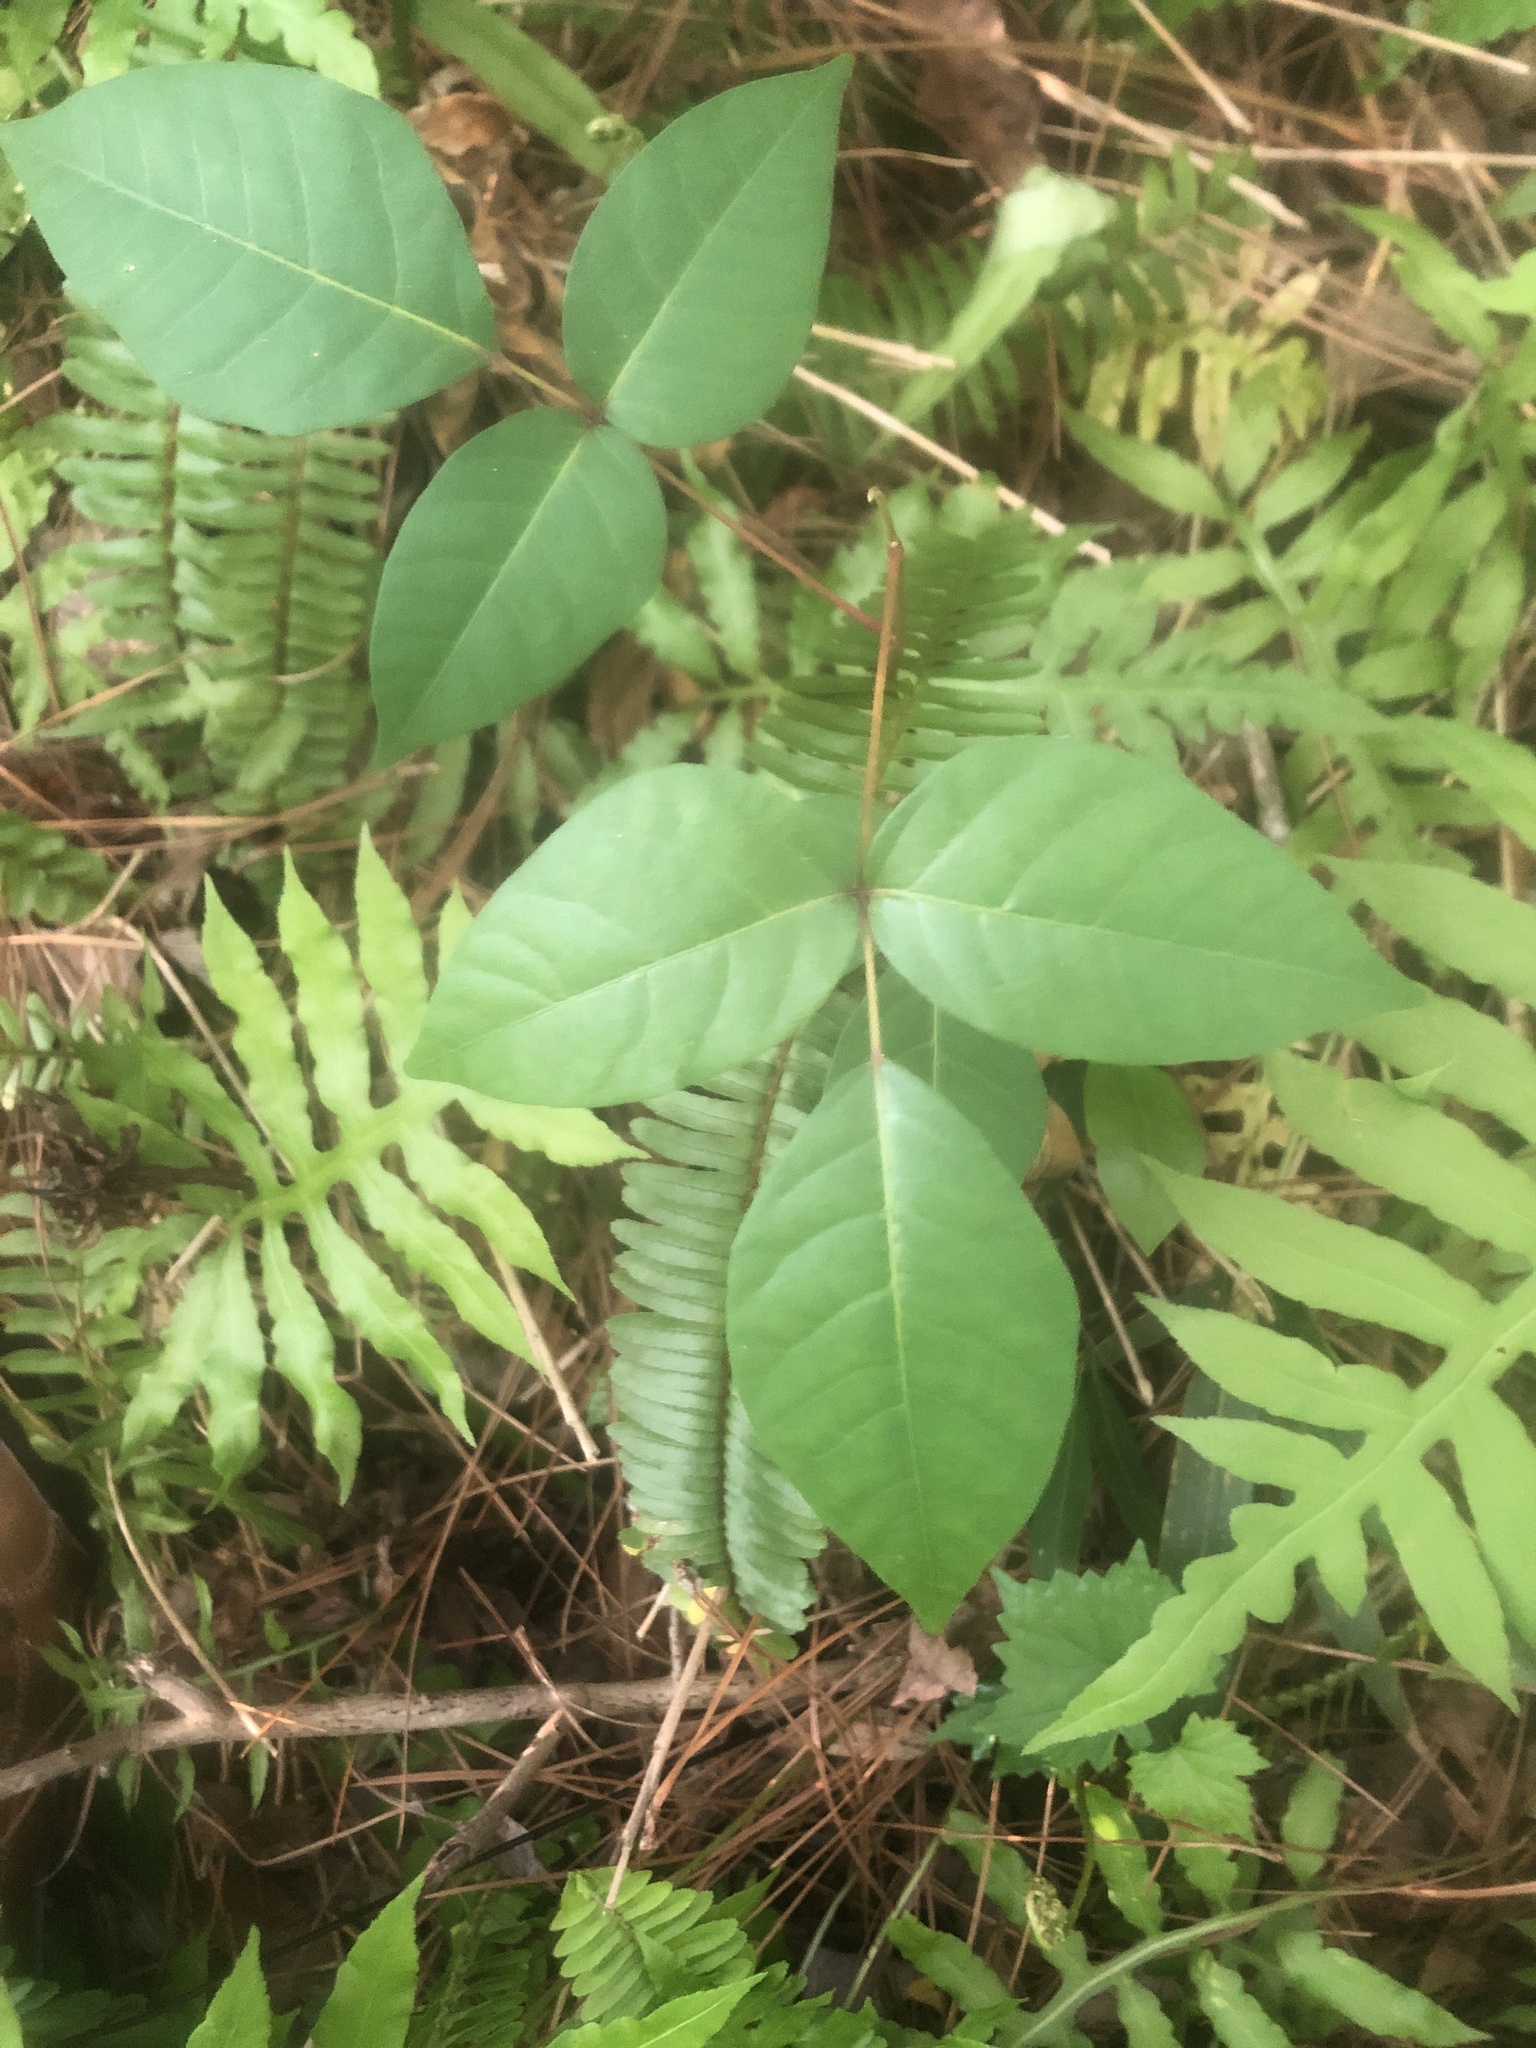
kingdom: Plantae
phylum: Tracheophyta
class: Magnoliopsida
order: Sapindales
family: Anacardiaceae
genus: Toxicodendron
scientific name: Toxicodendron radicans
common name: Poison ivy
